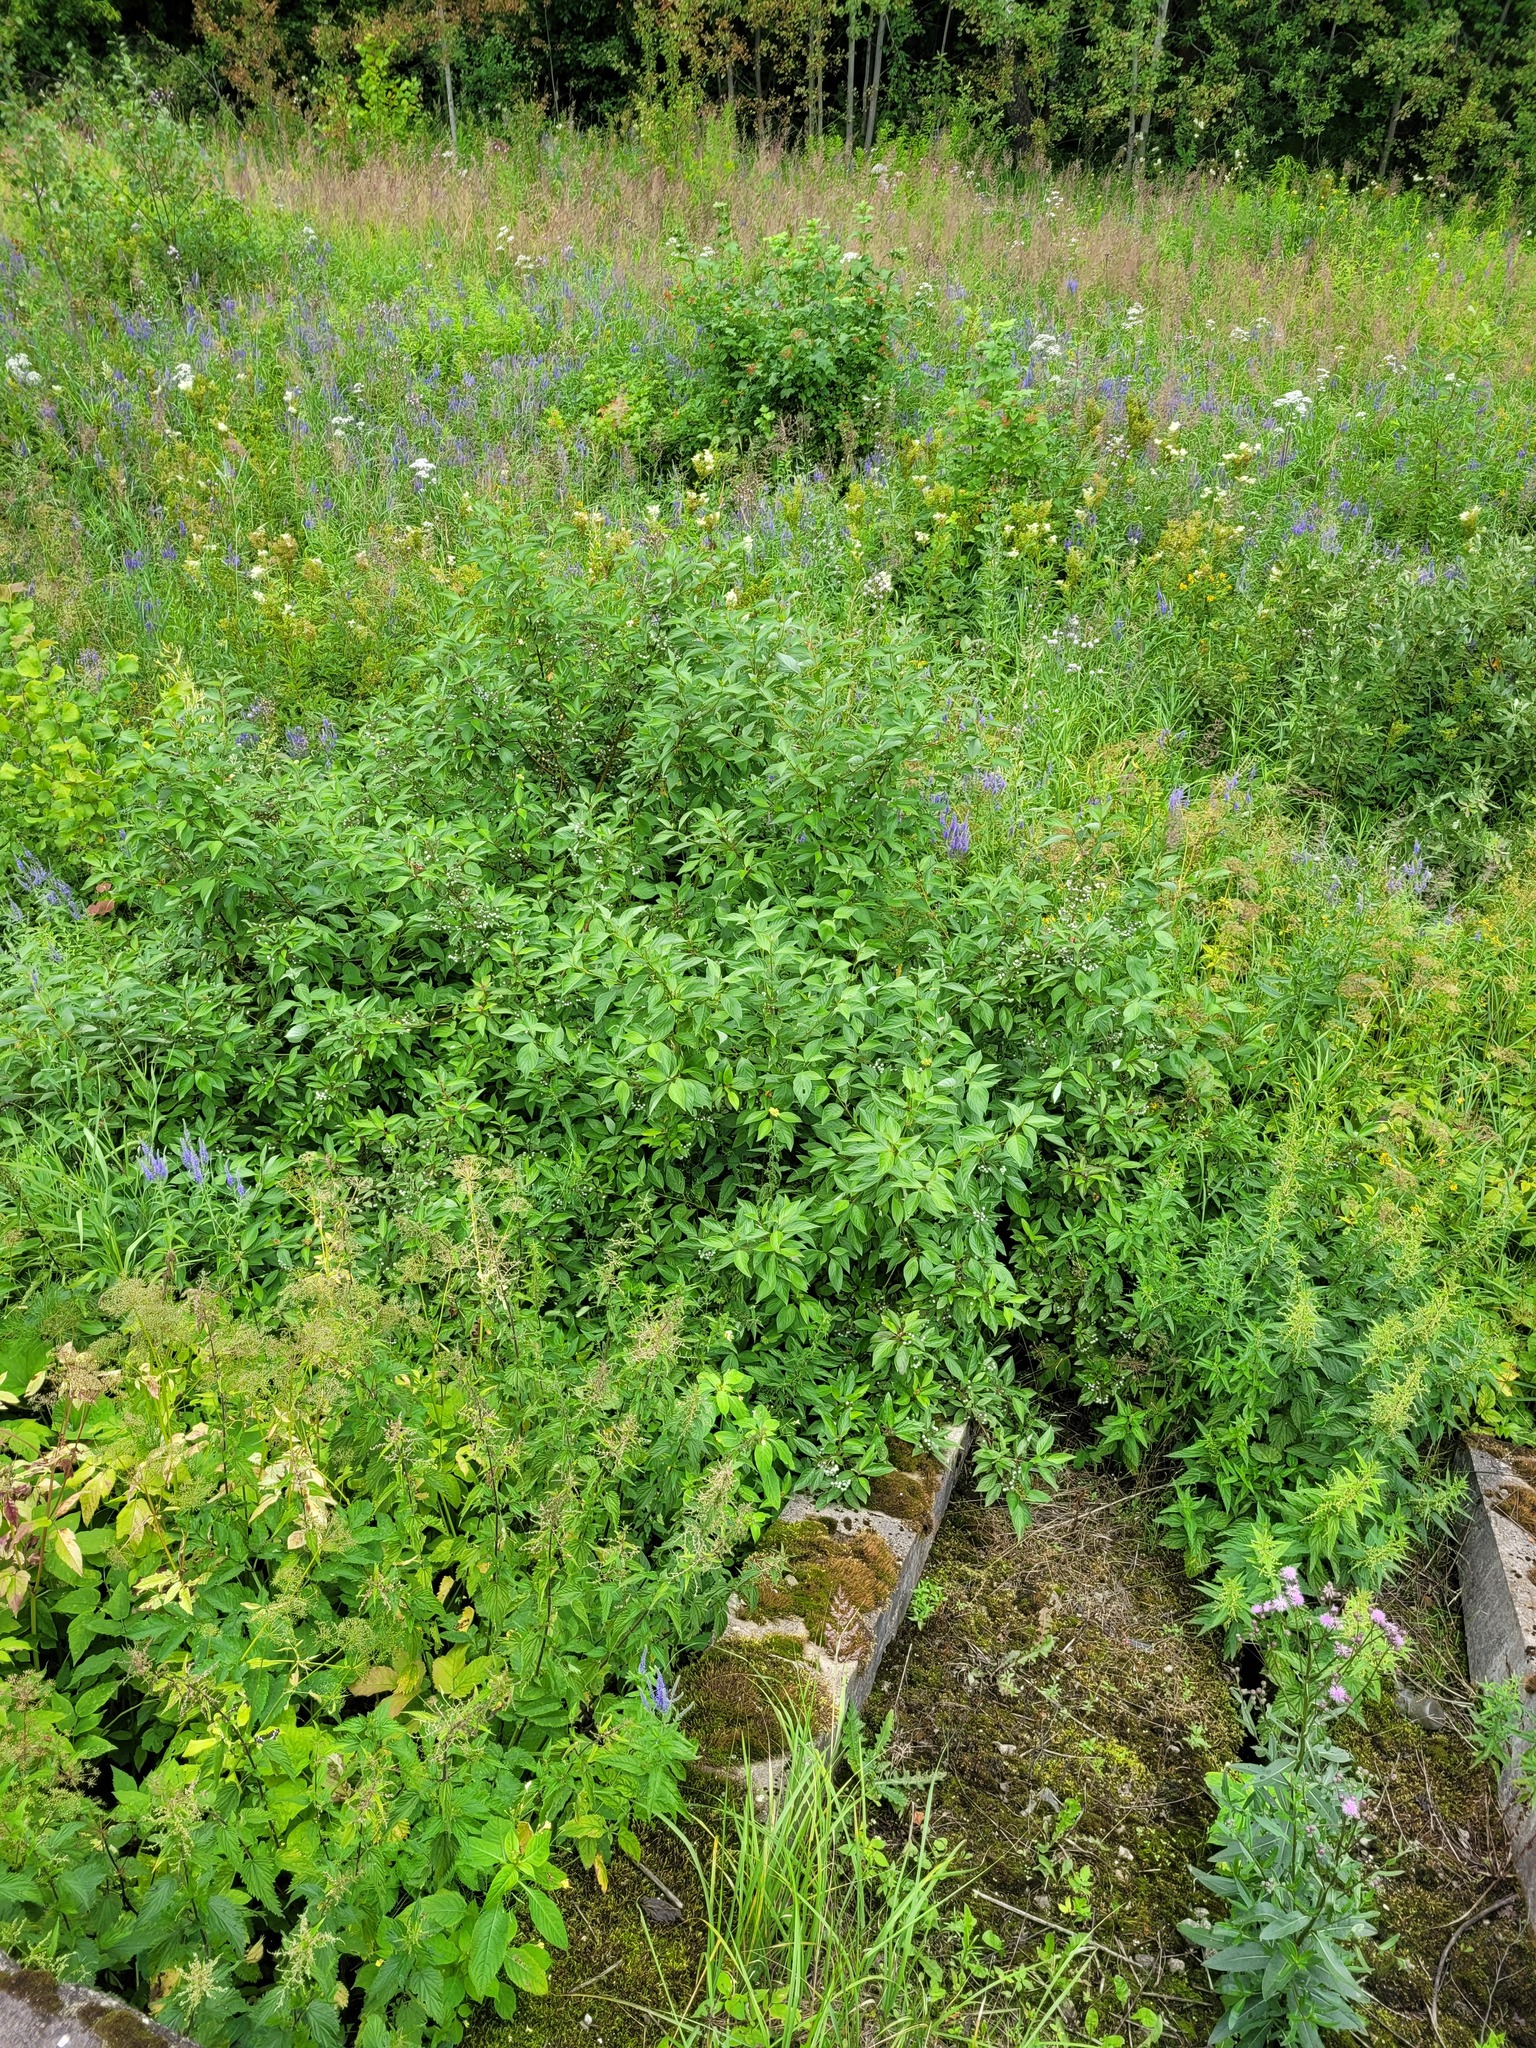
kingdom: Plantae
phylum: Tracheophyta
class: Magnoliopsida
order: Cornales
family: Cornaceae
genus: Cornus
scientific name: Cornus alba
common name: White dogwood
